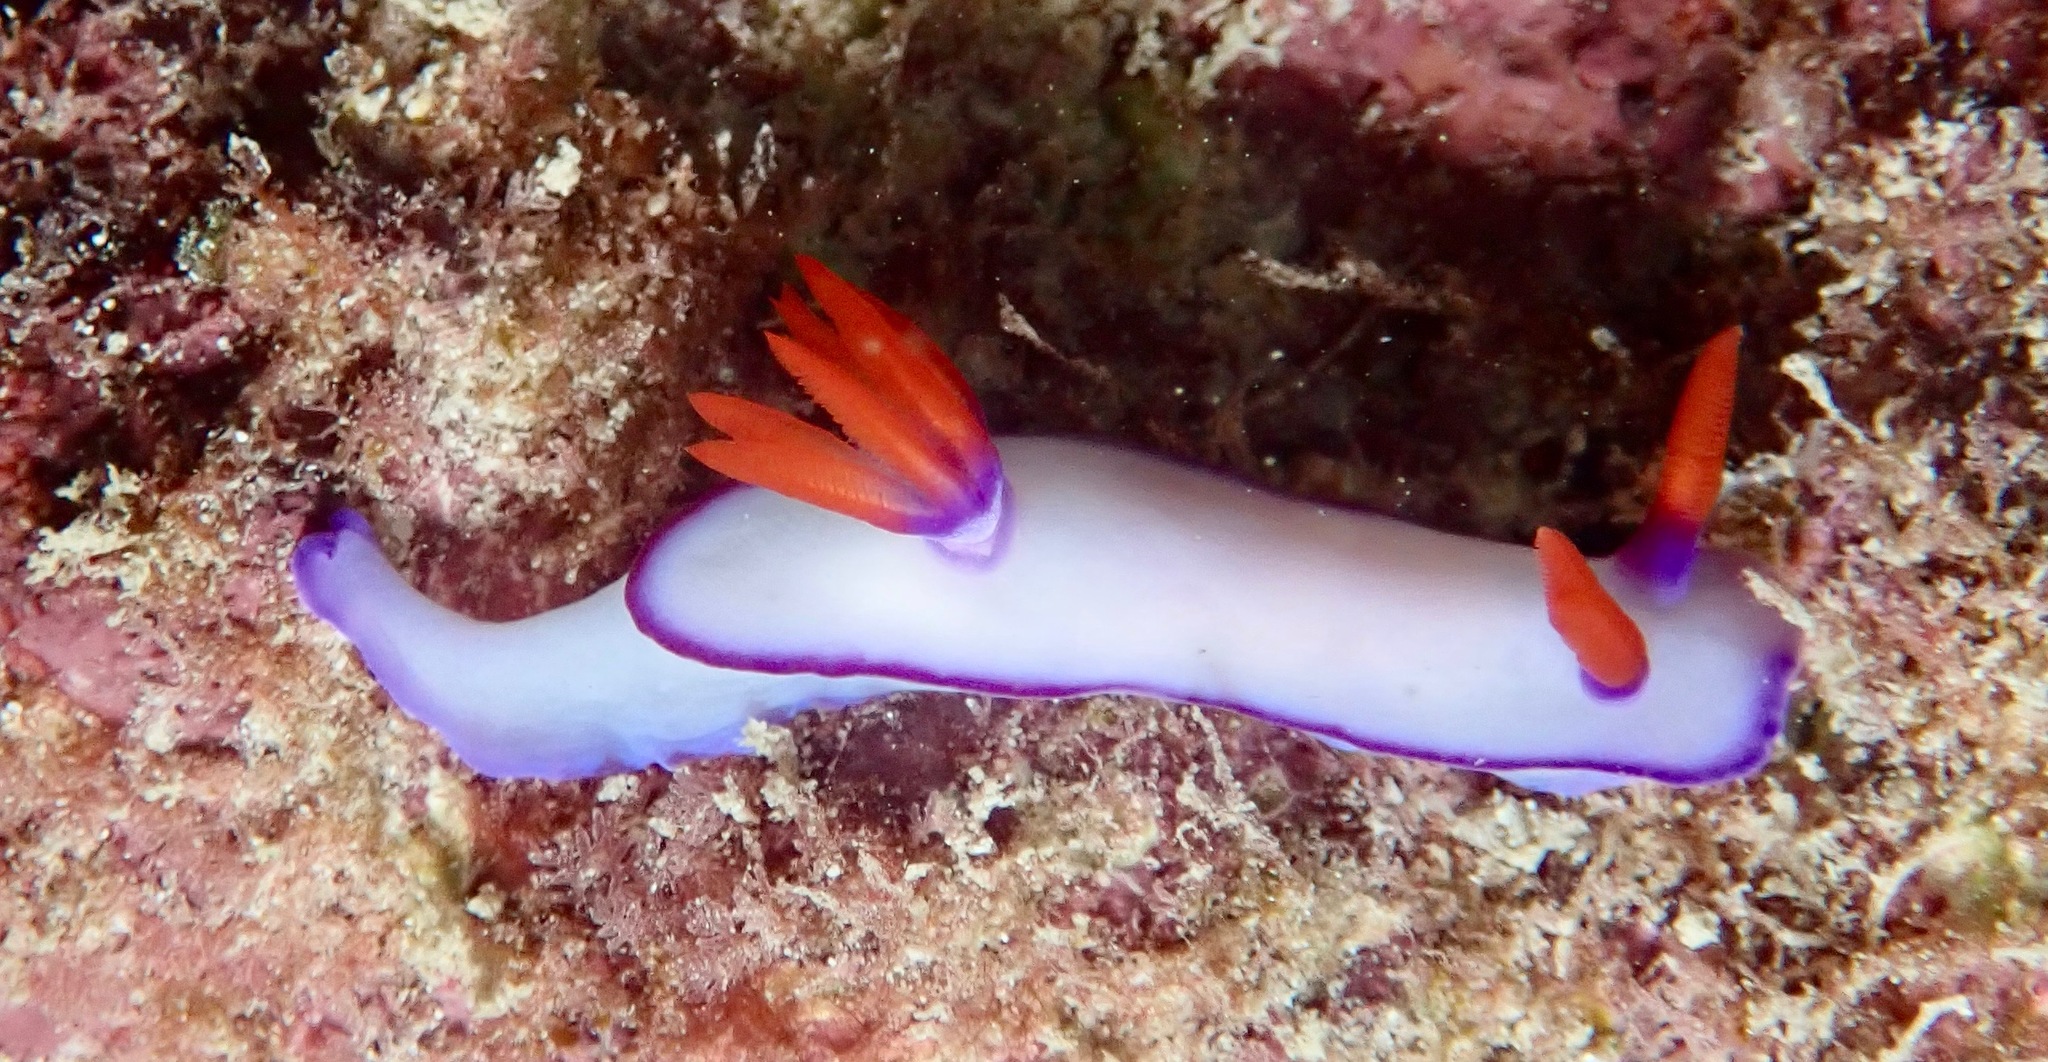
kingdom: Animalia
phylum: Mollusca
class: Gastropoda
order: Nudibranchia
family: Chromodorididae
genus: Hypselodoris
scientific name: Hypselodoris brycei
